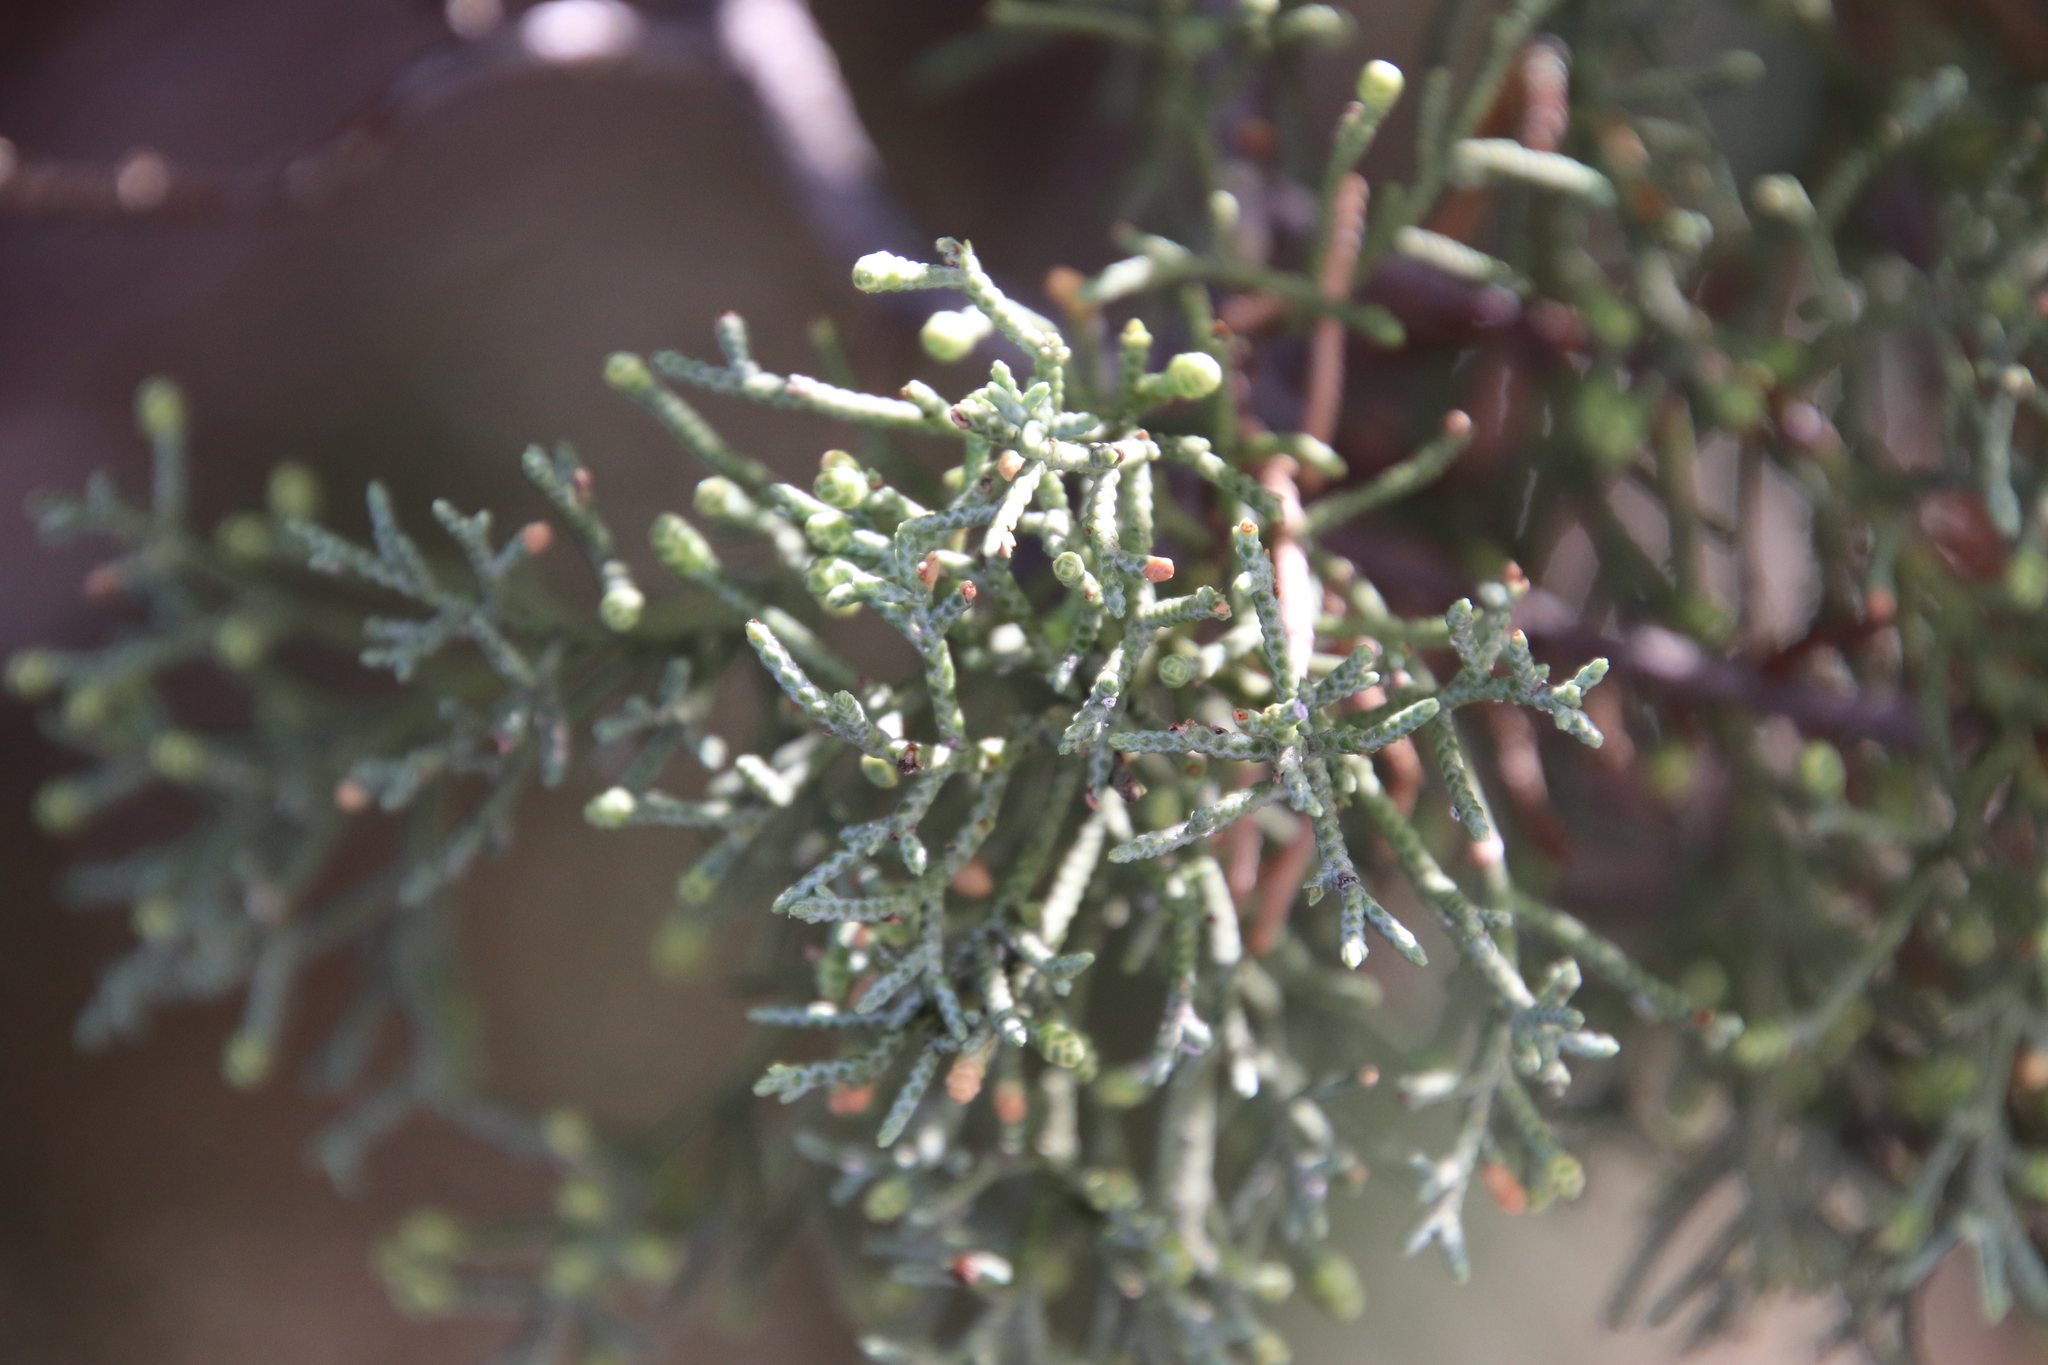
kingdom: Plantae
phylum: Tracheophyta
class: Pinopsida
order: Pinales
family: Cupressaceae
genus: Cupressus
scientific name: Cupressus arizonica
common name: Arizona cypress
